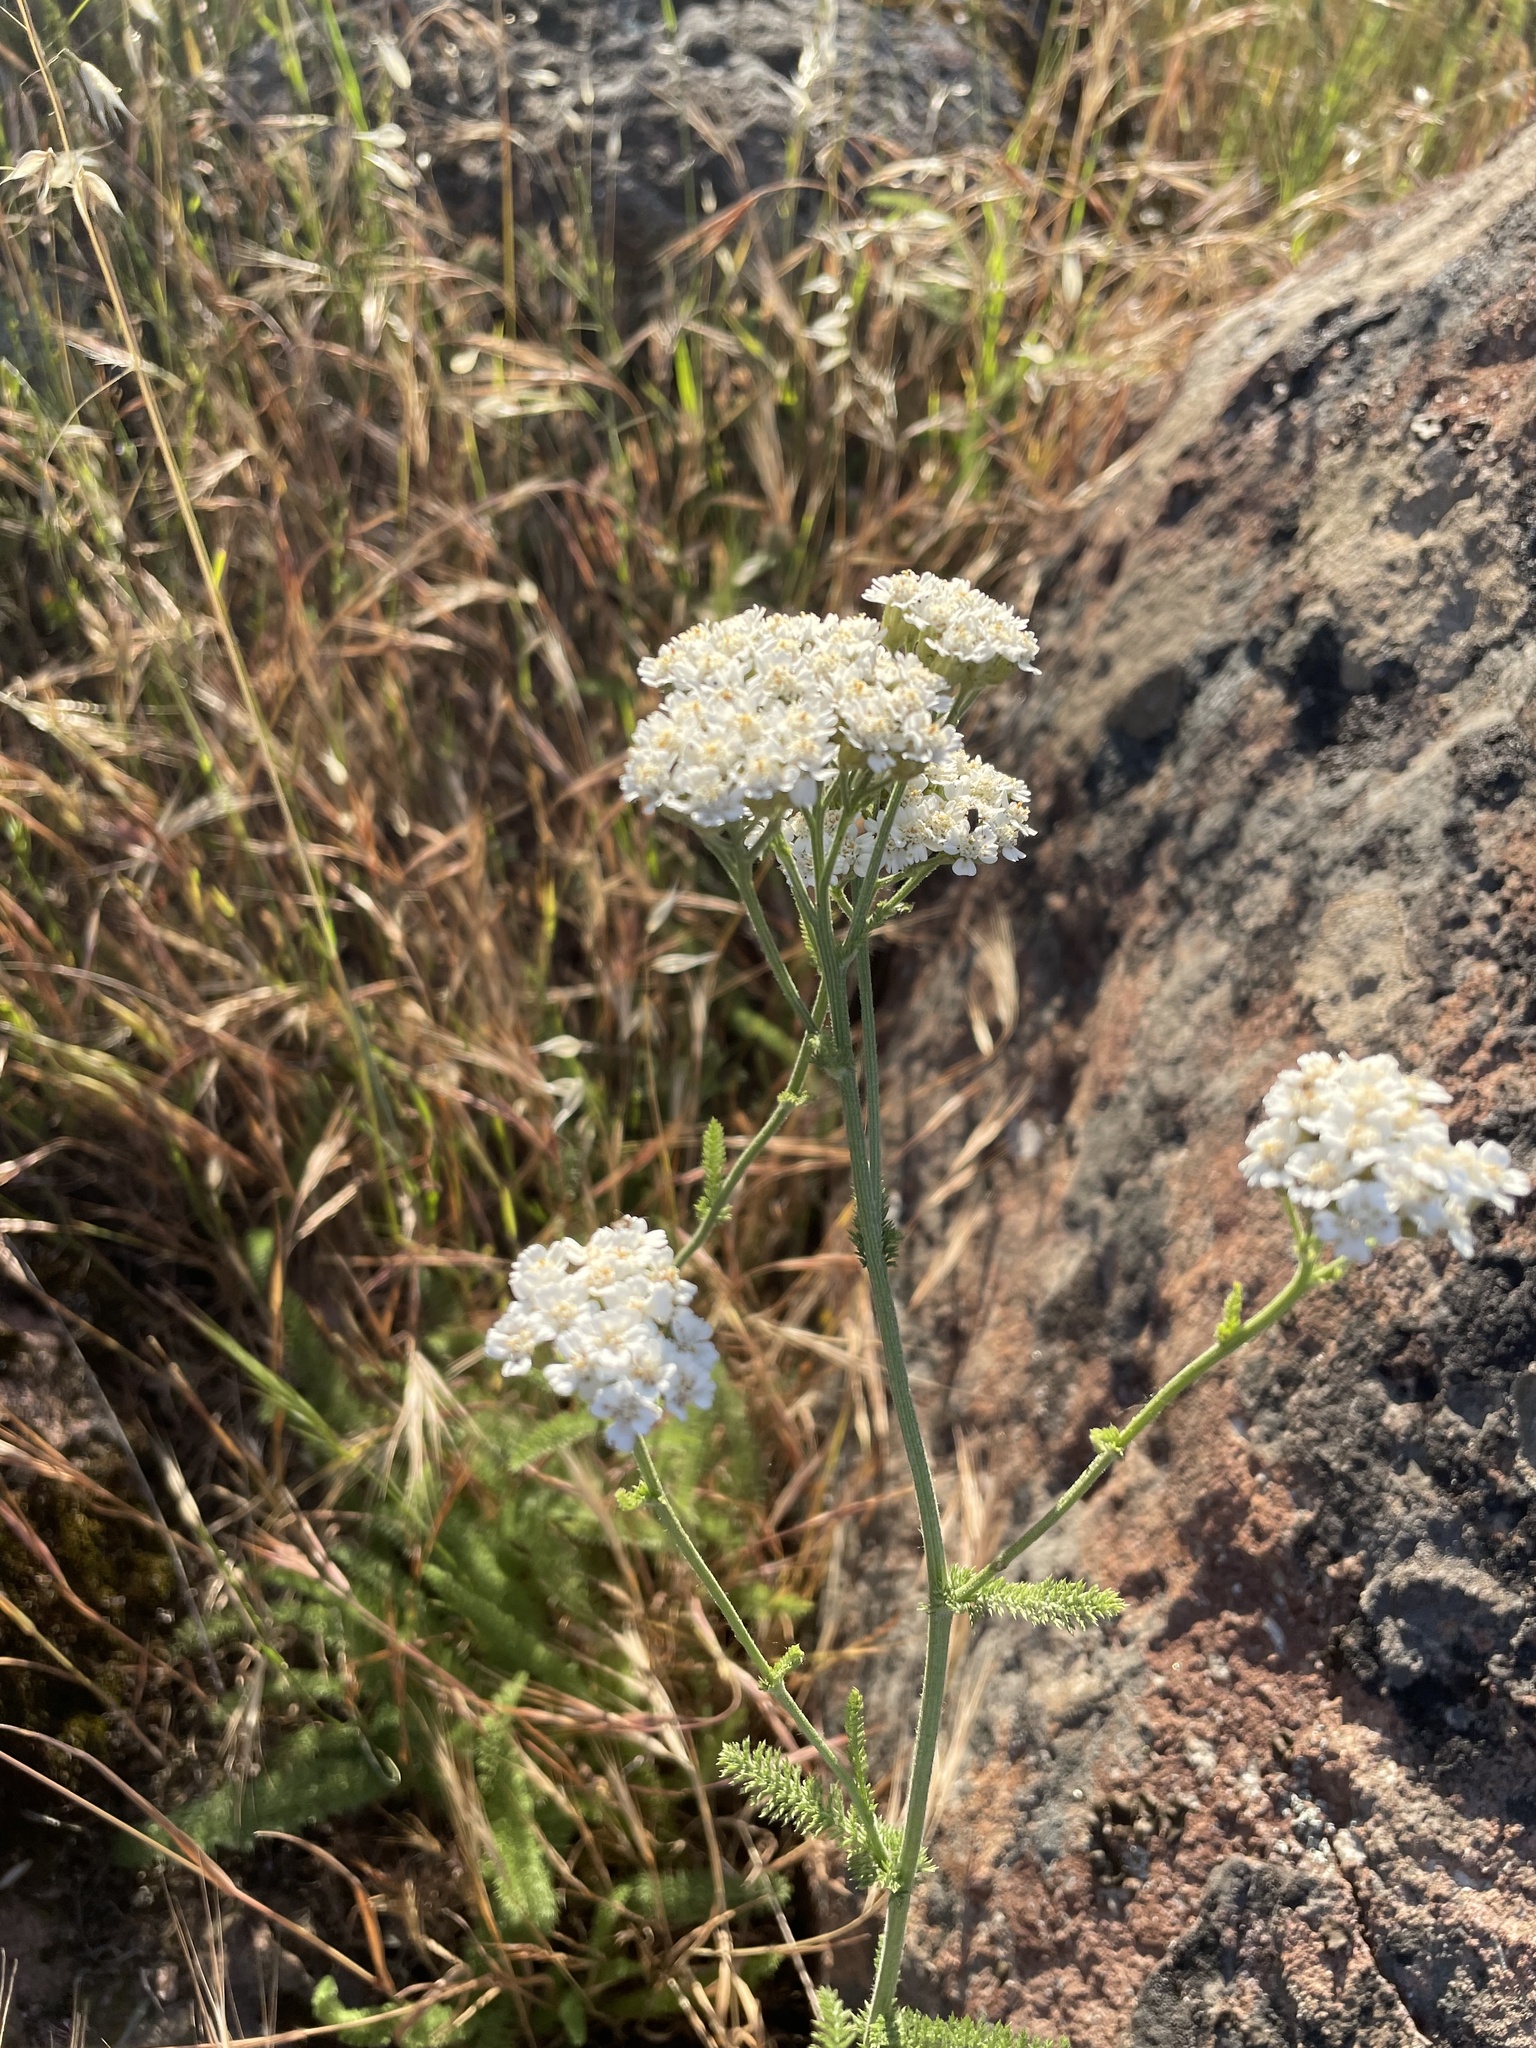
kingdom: Plantae
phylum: Tracheophyta
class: Magnoliopsida
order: Asterales
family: Asteraceae
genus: Achillea
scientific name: Achillea millefolium
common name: Yarrow
